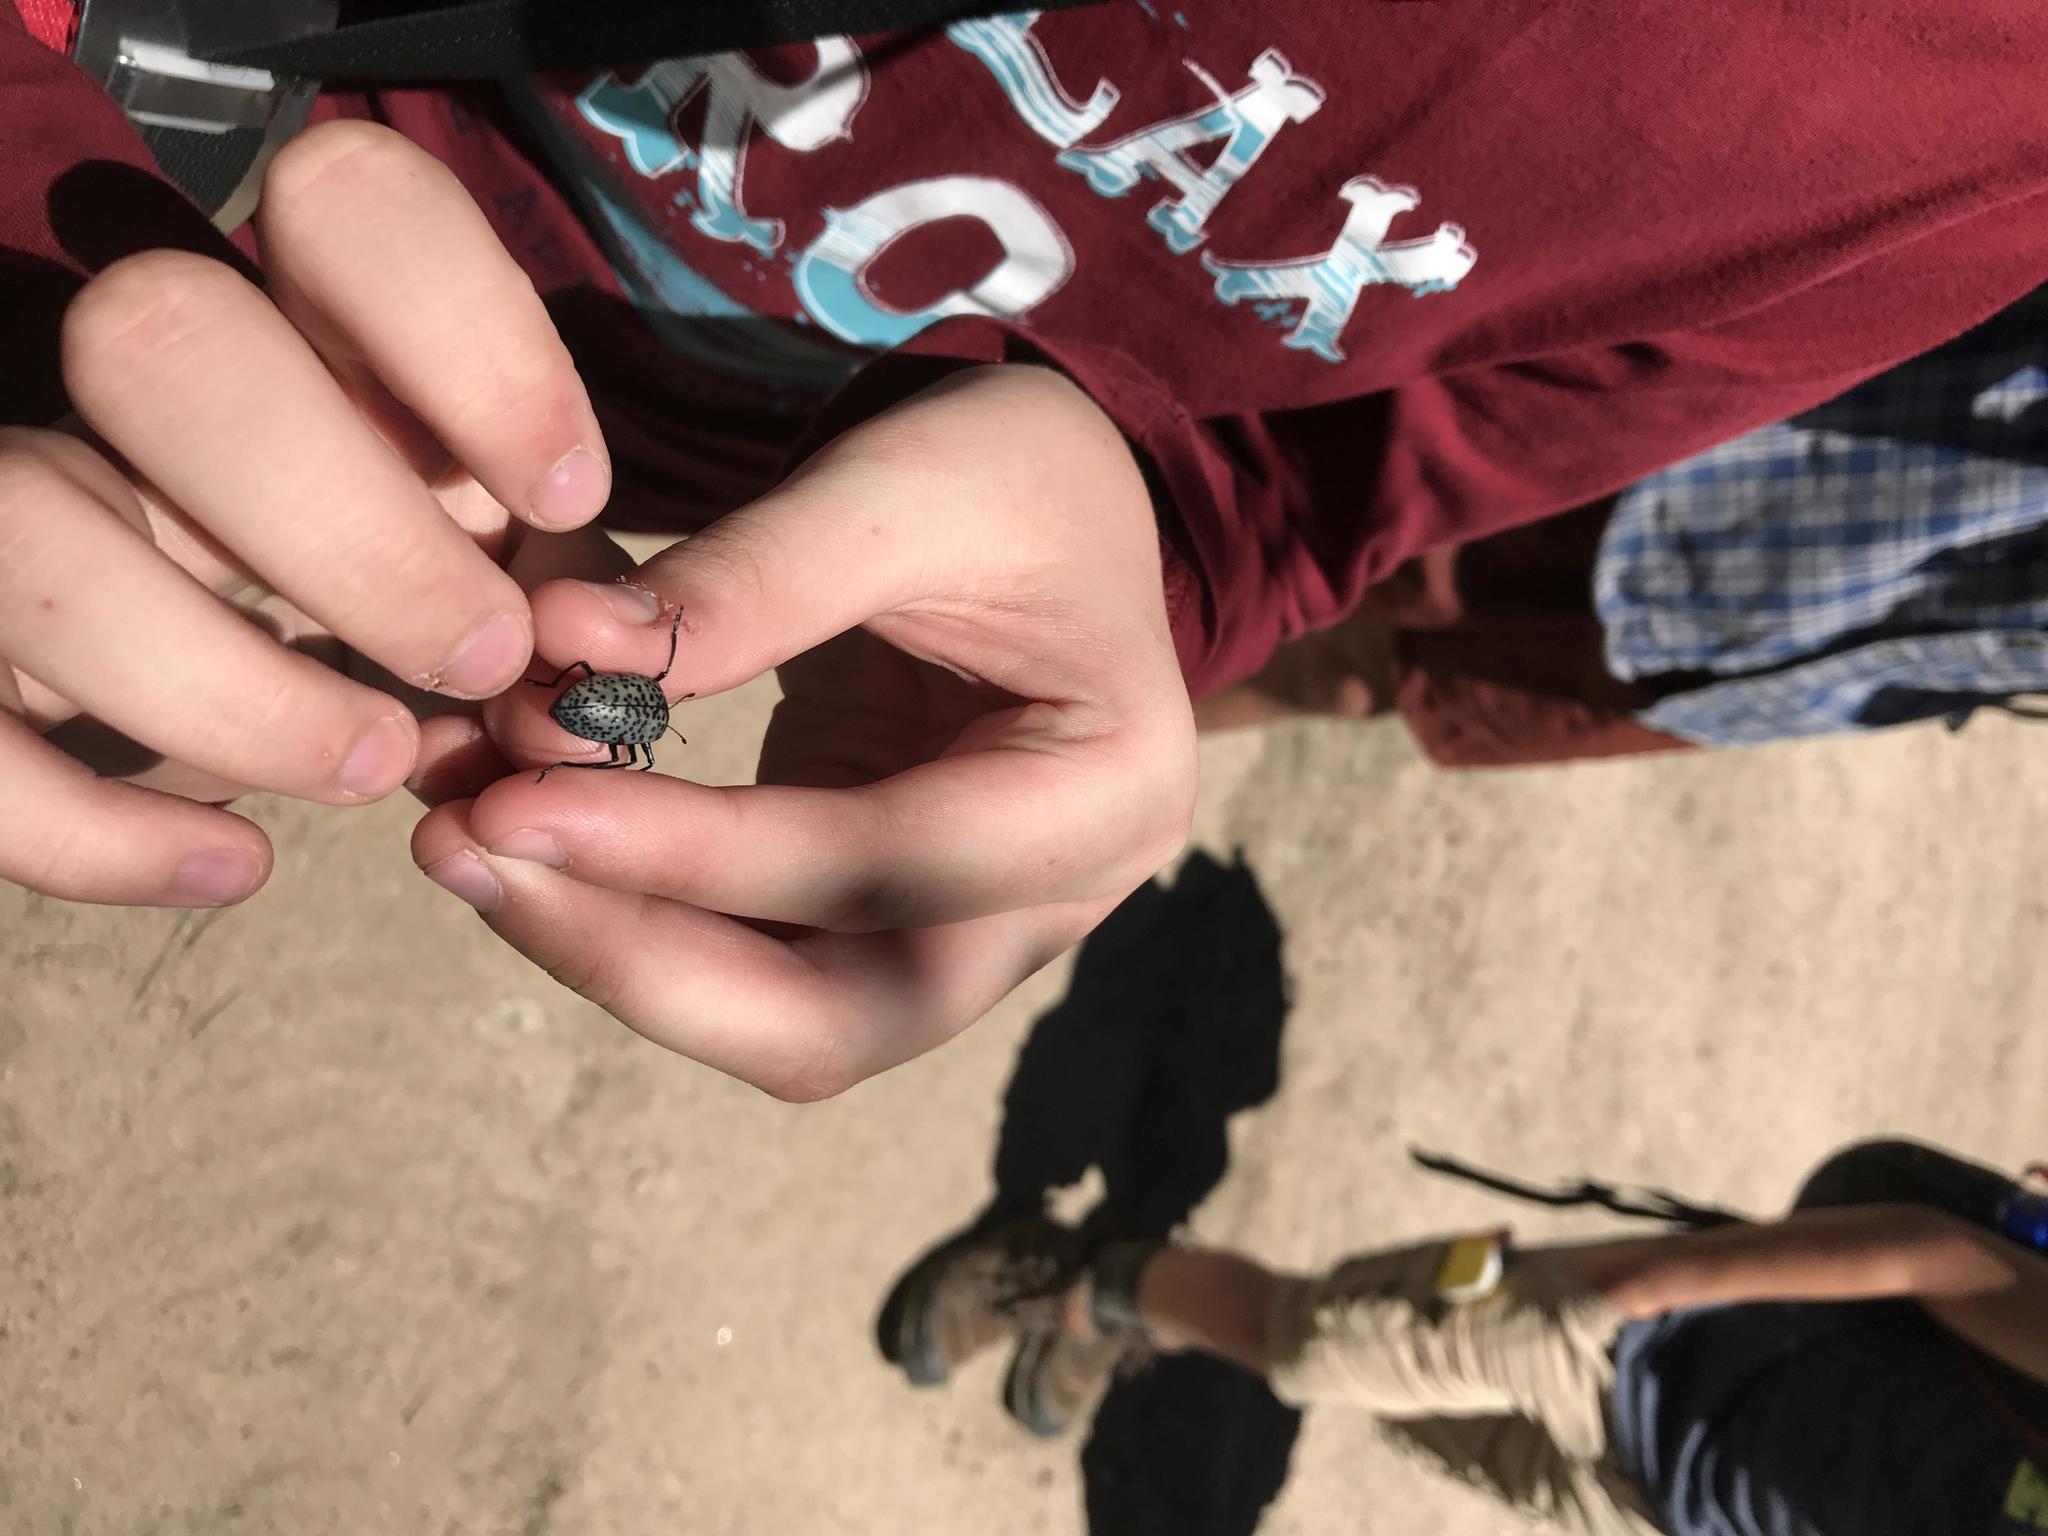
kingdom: Animalia
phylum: Arthropoda
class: Insecta
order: Coleoptera
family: Erotylidae
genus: Gibbifer
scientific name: Gibbifer californicus
